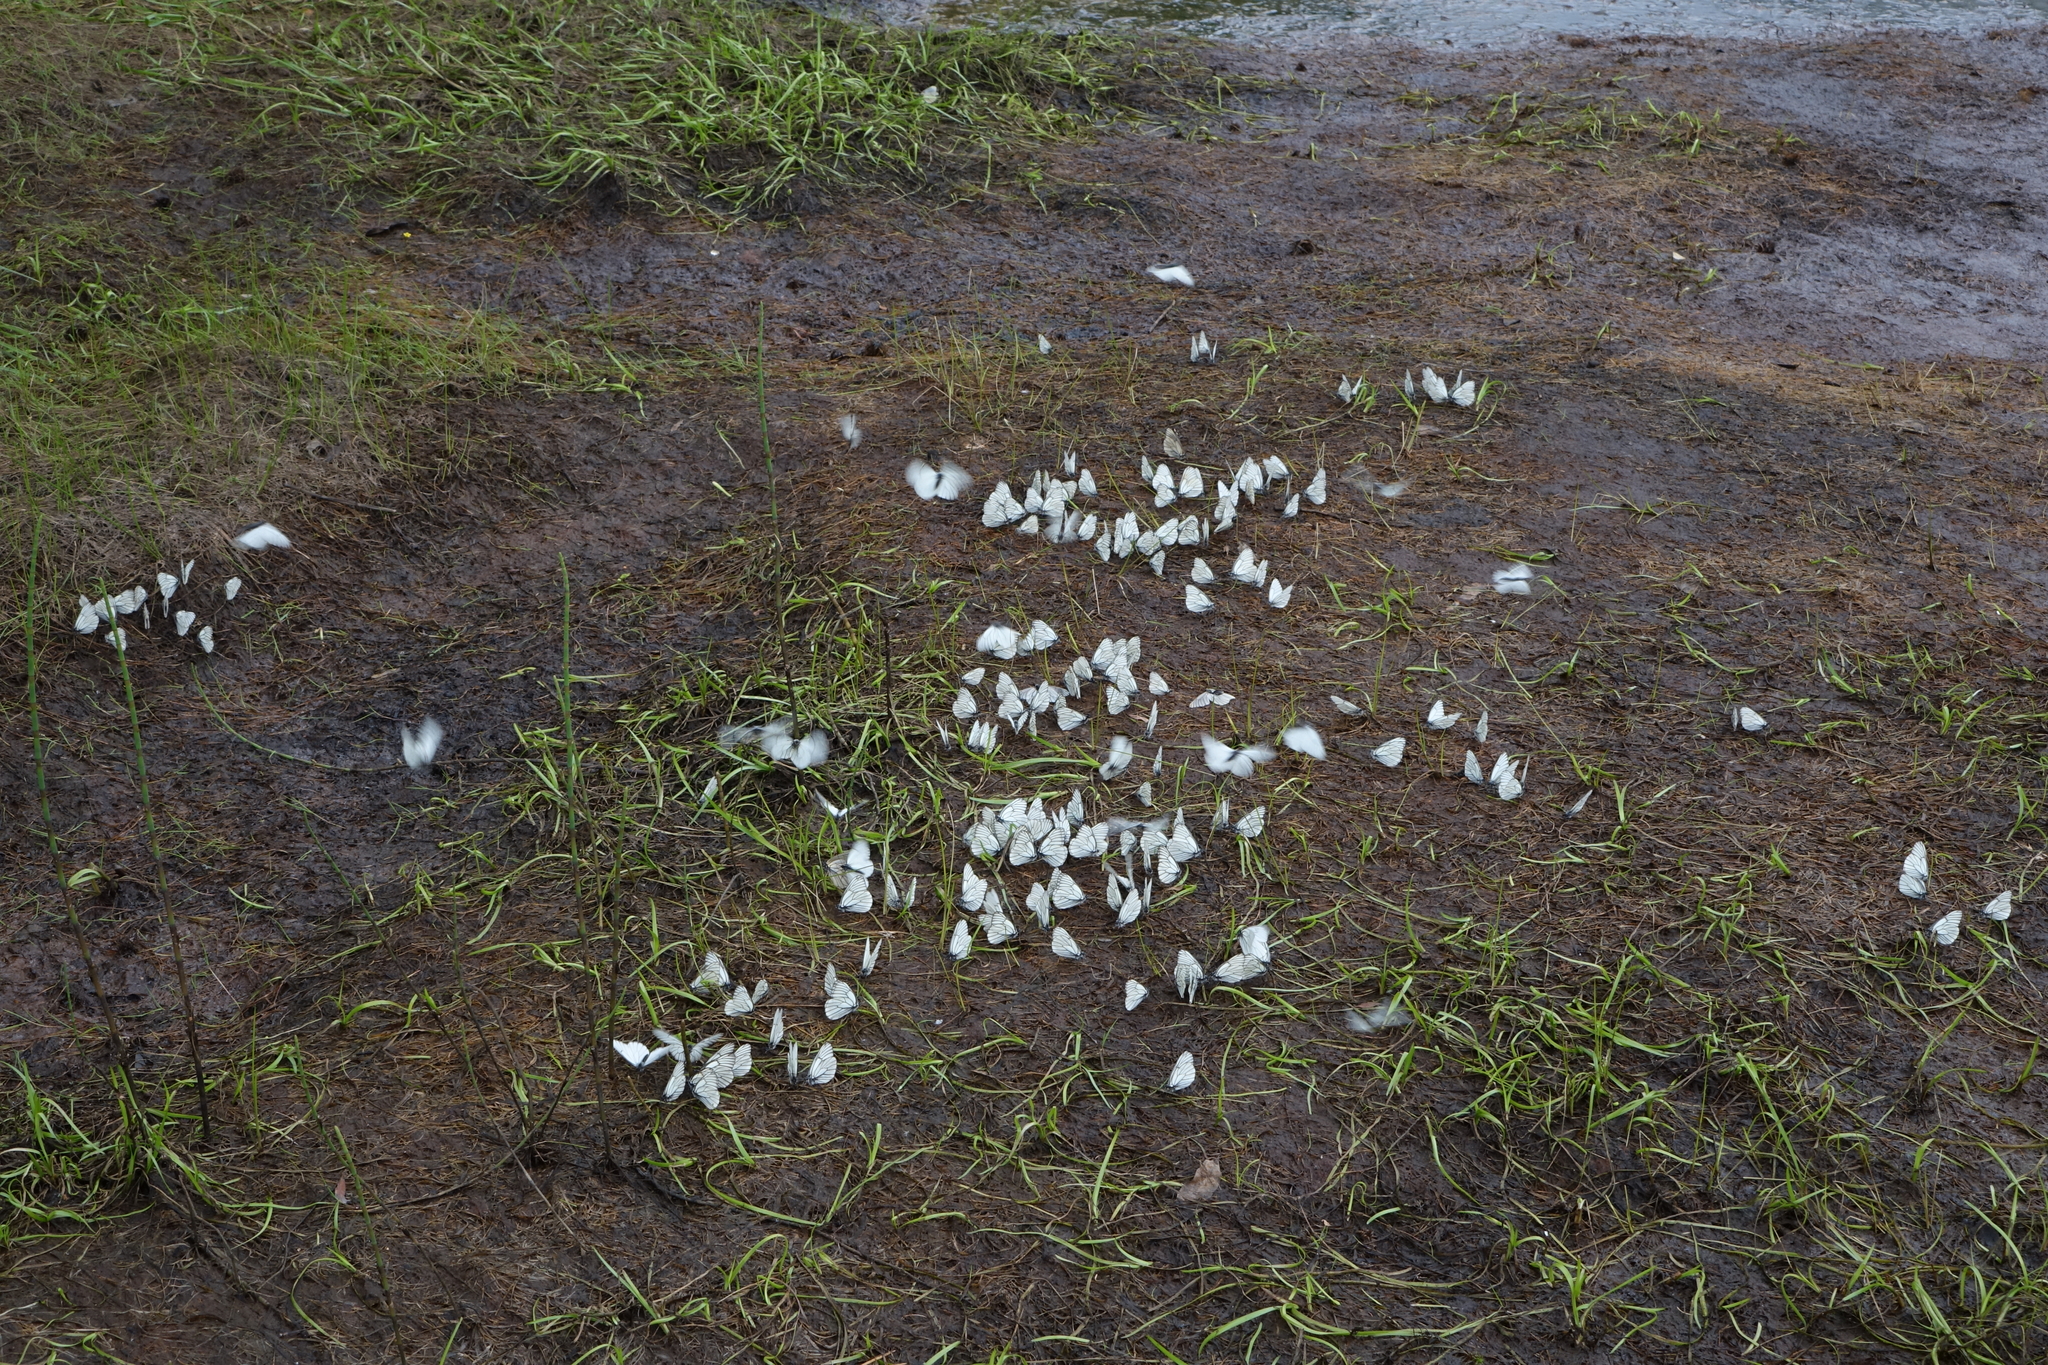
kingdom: Animalia
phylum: Arthropoda
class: Insecta
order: Lepidoptera
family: Pieridae
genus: Aporia
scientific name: Aporia crataegi
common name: Black-veined white
